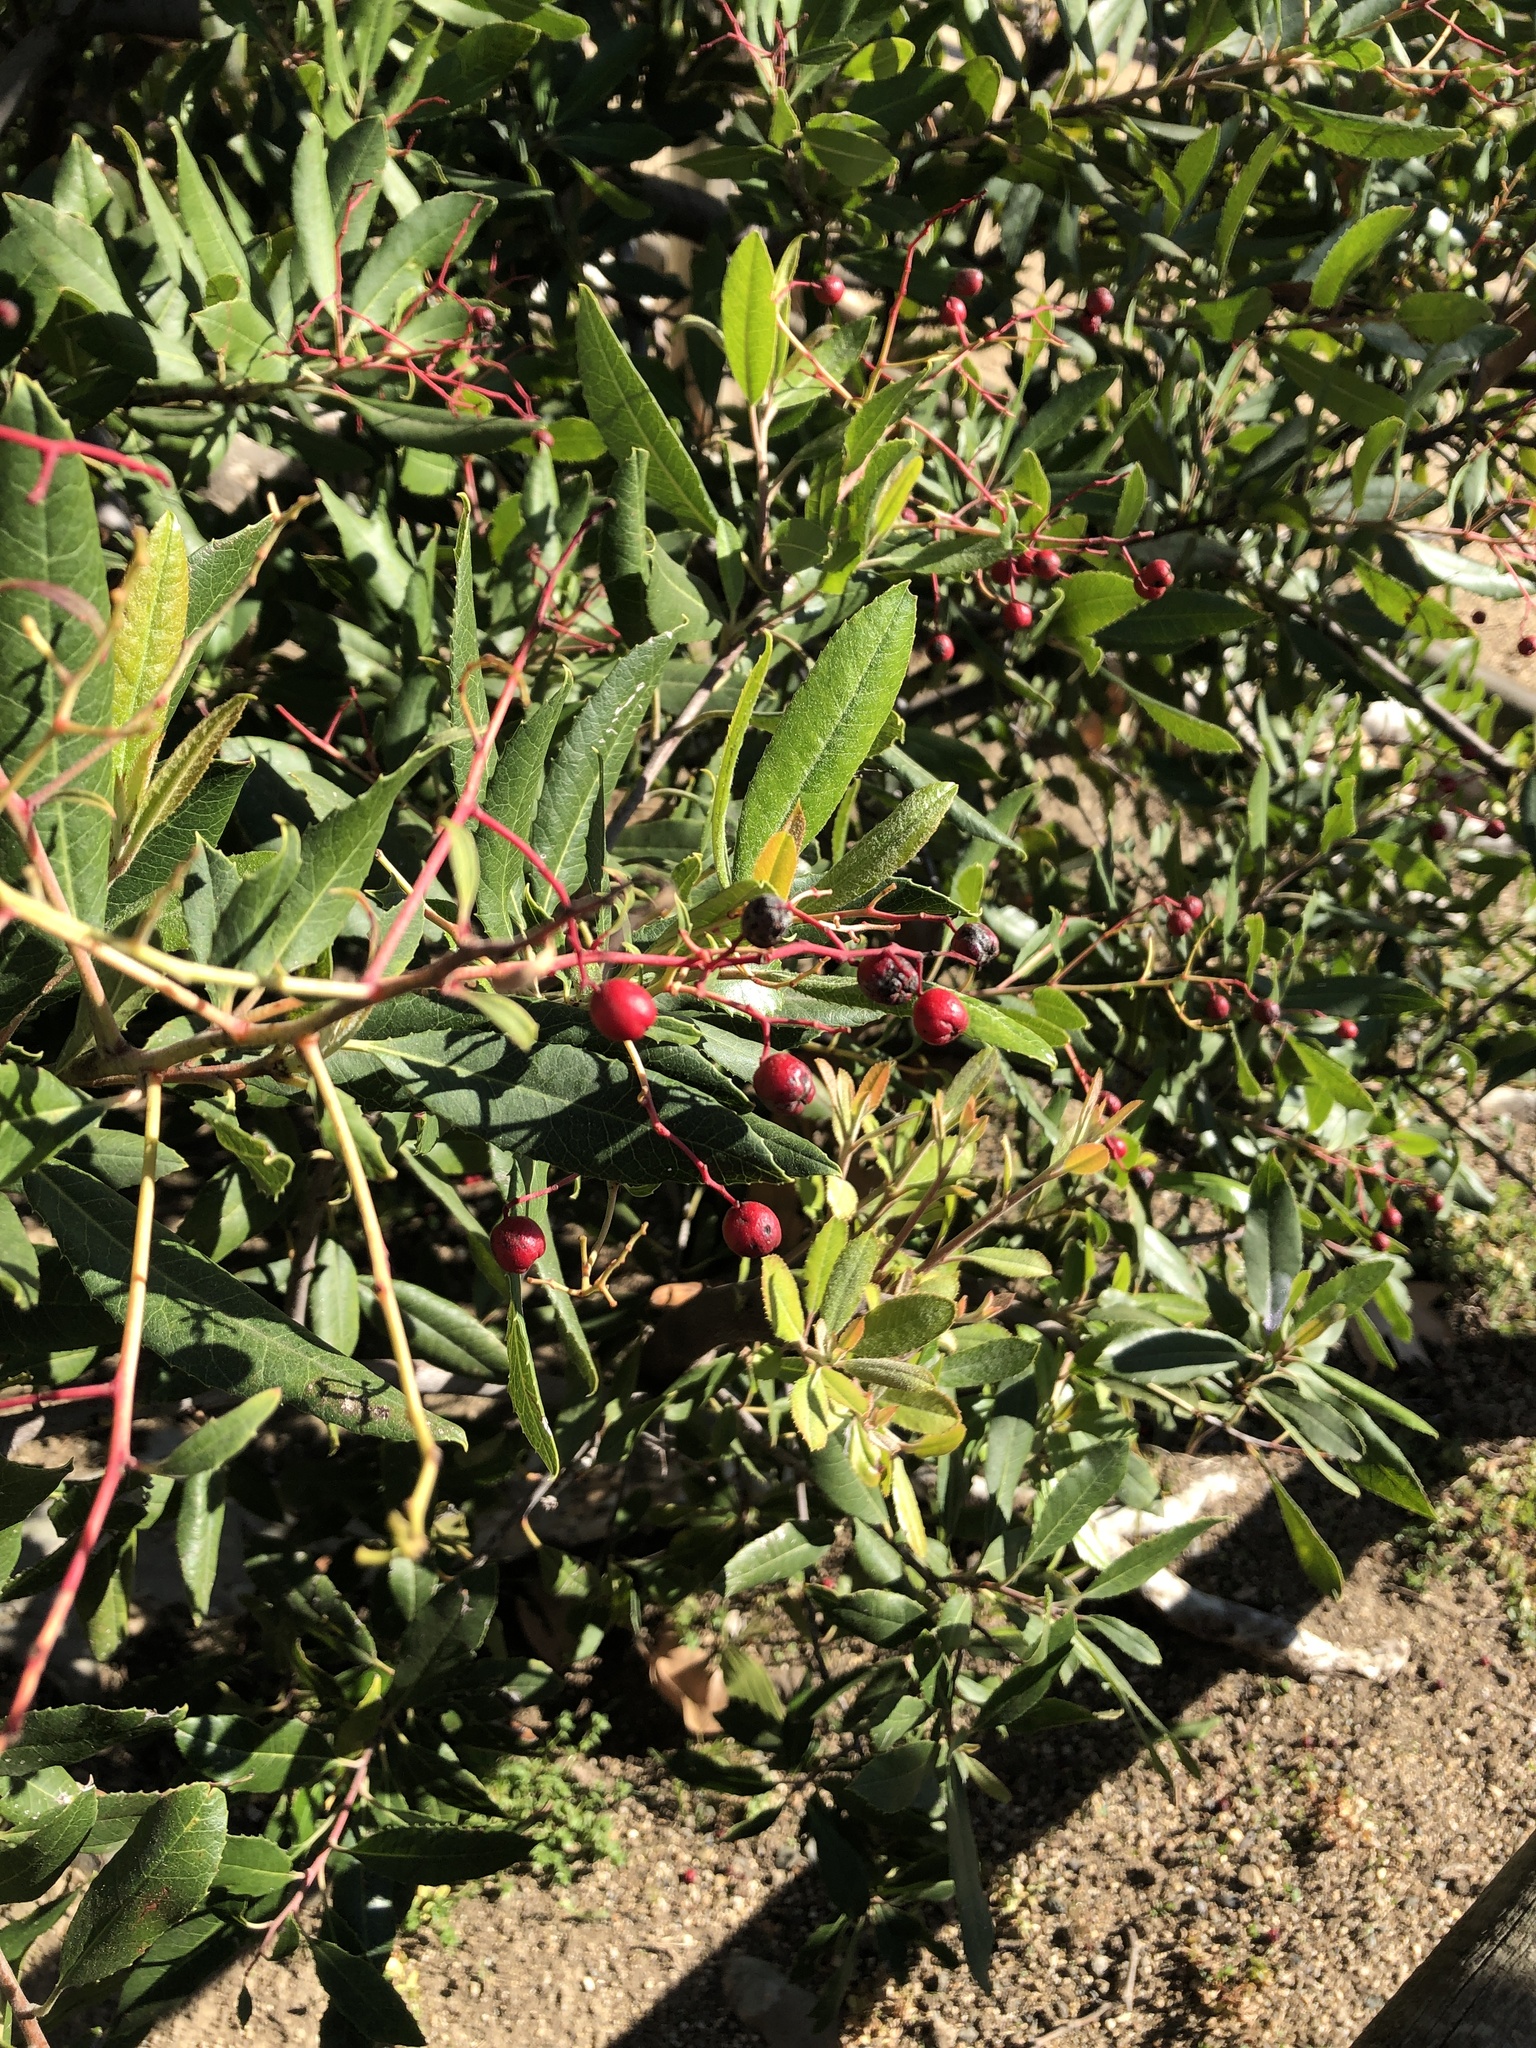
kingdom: Plantae
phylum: Tracheophyta
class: Magnoliopsida
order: Rosales
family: Rosaceae
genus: Heteromeles
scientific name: Heteromeles arbutifolia
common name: California-holly
